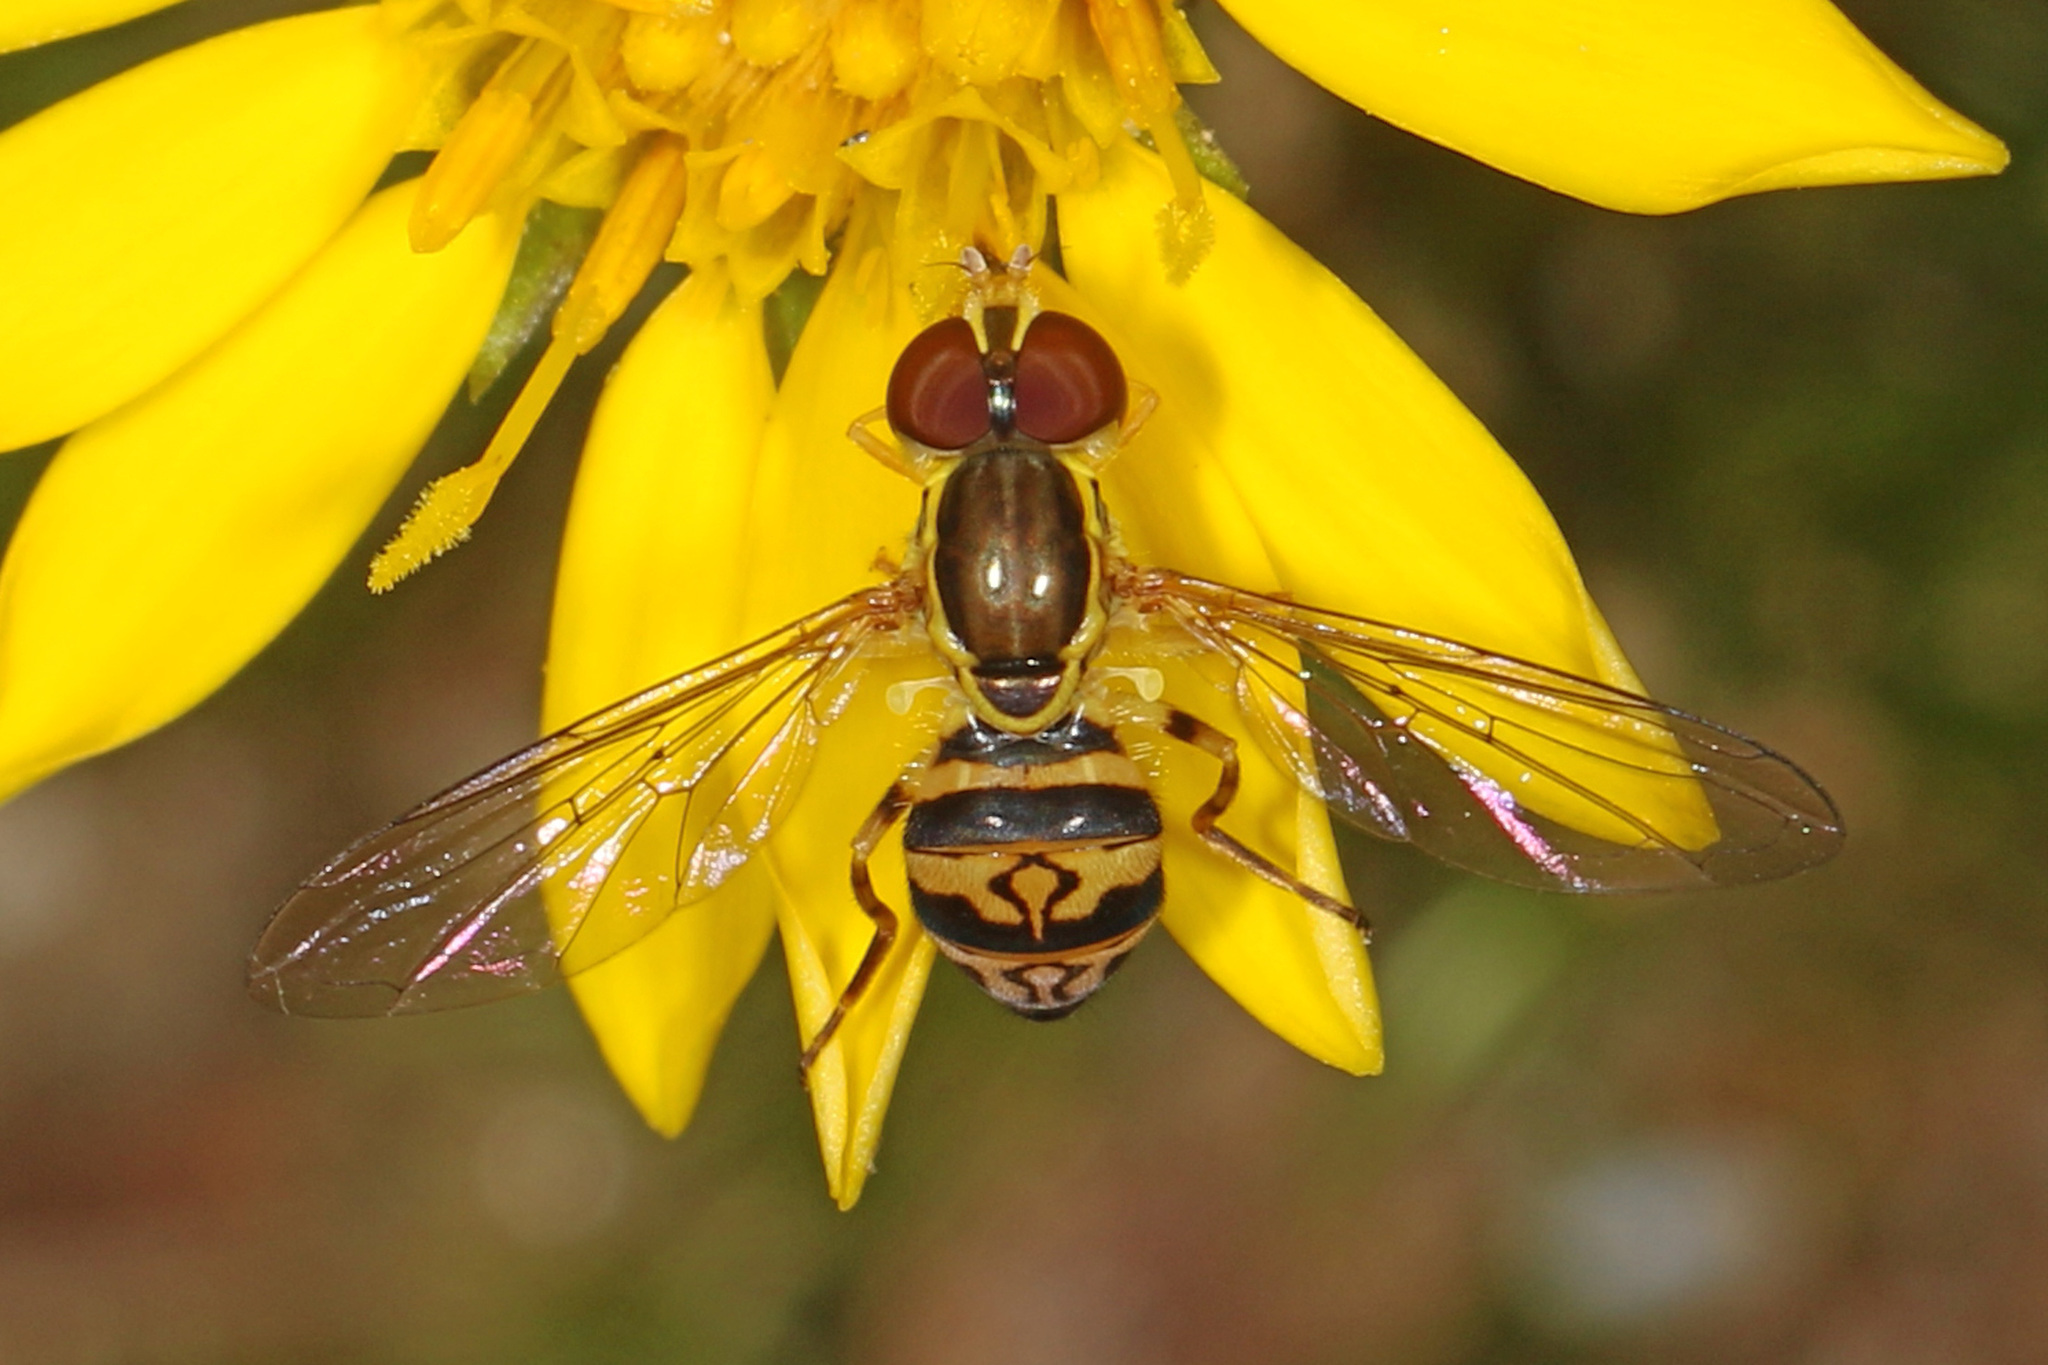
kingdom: Animalia
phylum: Arthropoda
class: Insecta
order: Diptera
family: Syrphidae
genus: Toxomerus
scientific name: Toxomerus geminatus
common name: Eastern calligrapher
